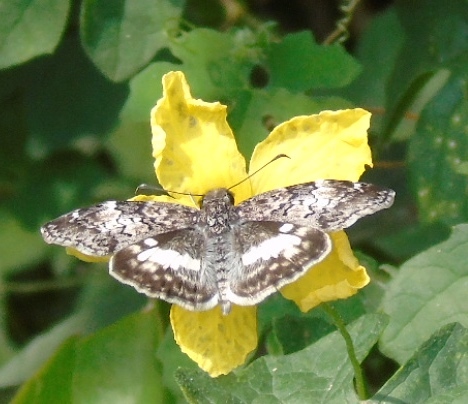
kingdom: Animalia
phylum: Arthropoda
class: Insecta
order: Lepidoptera
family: Hesperiidae
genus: Chiothion
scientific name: Chiothion georgina
